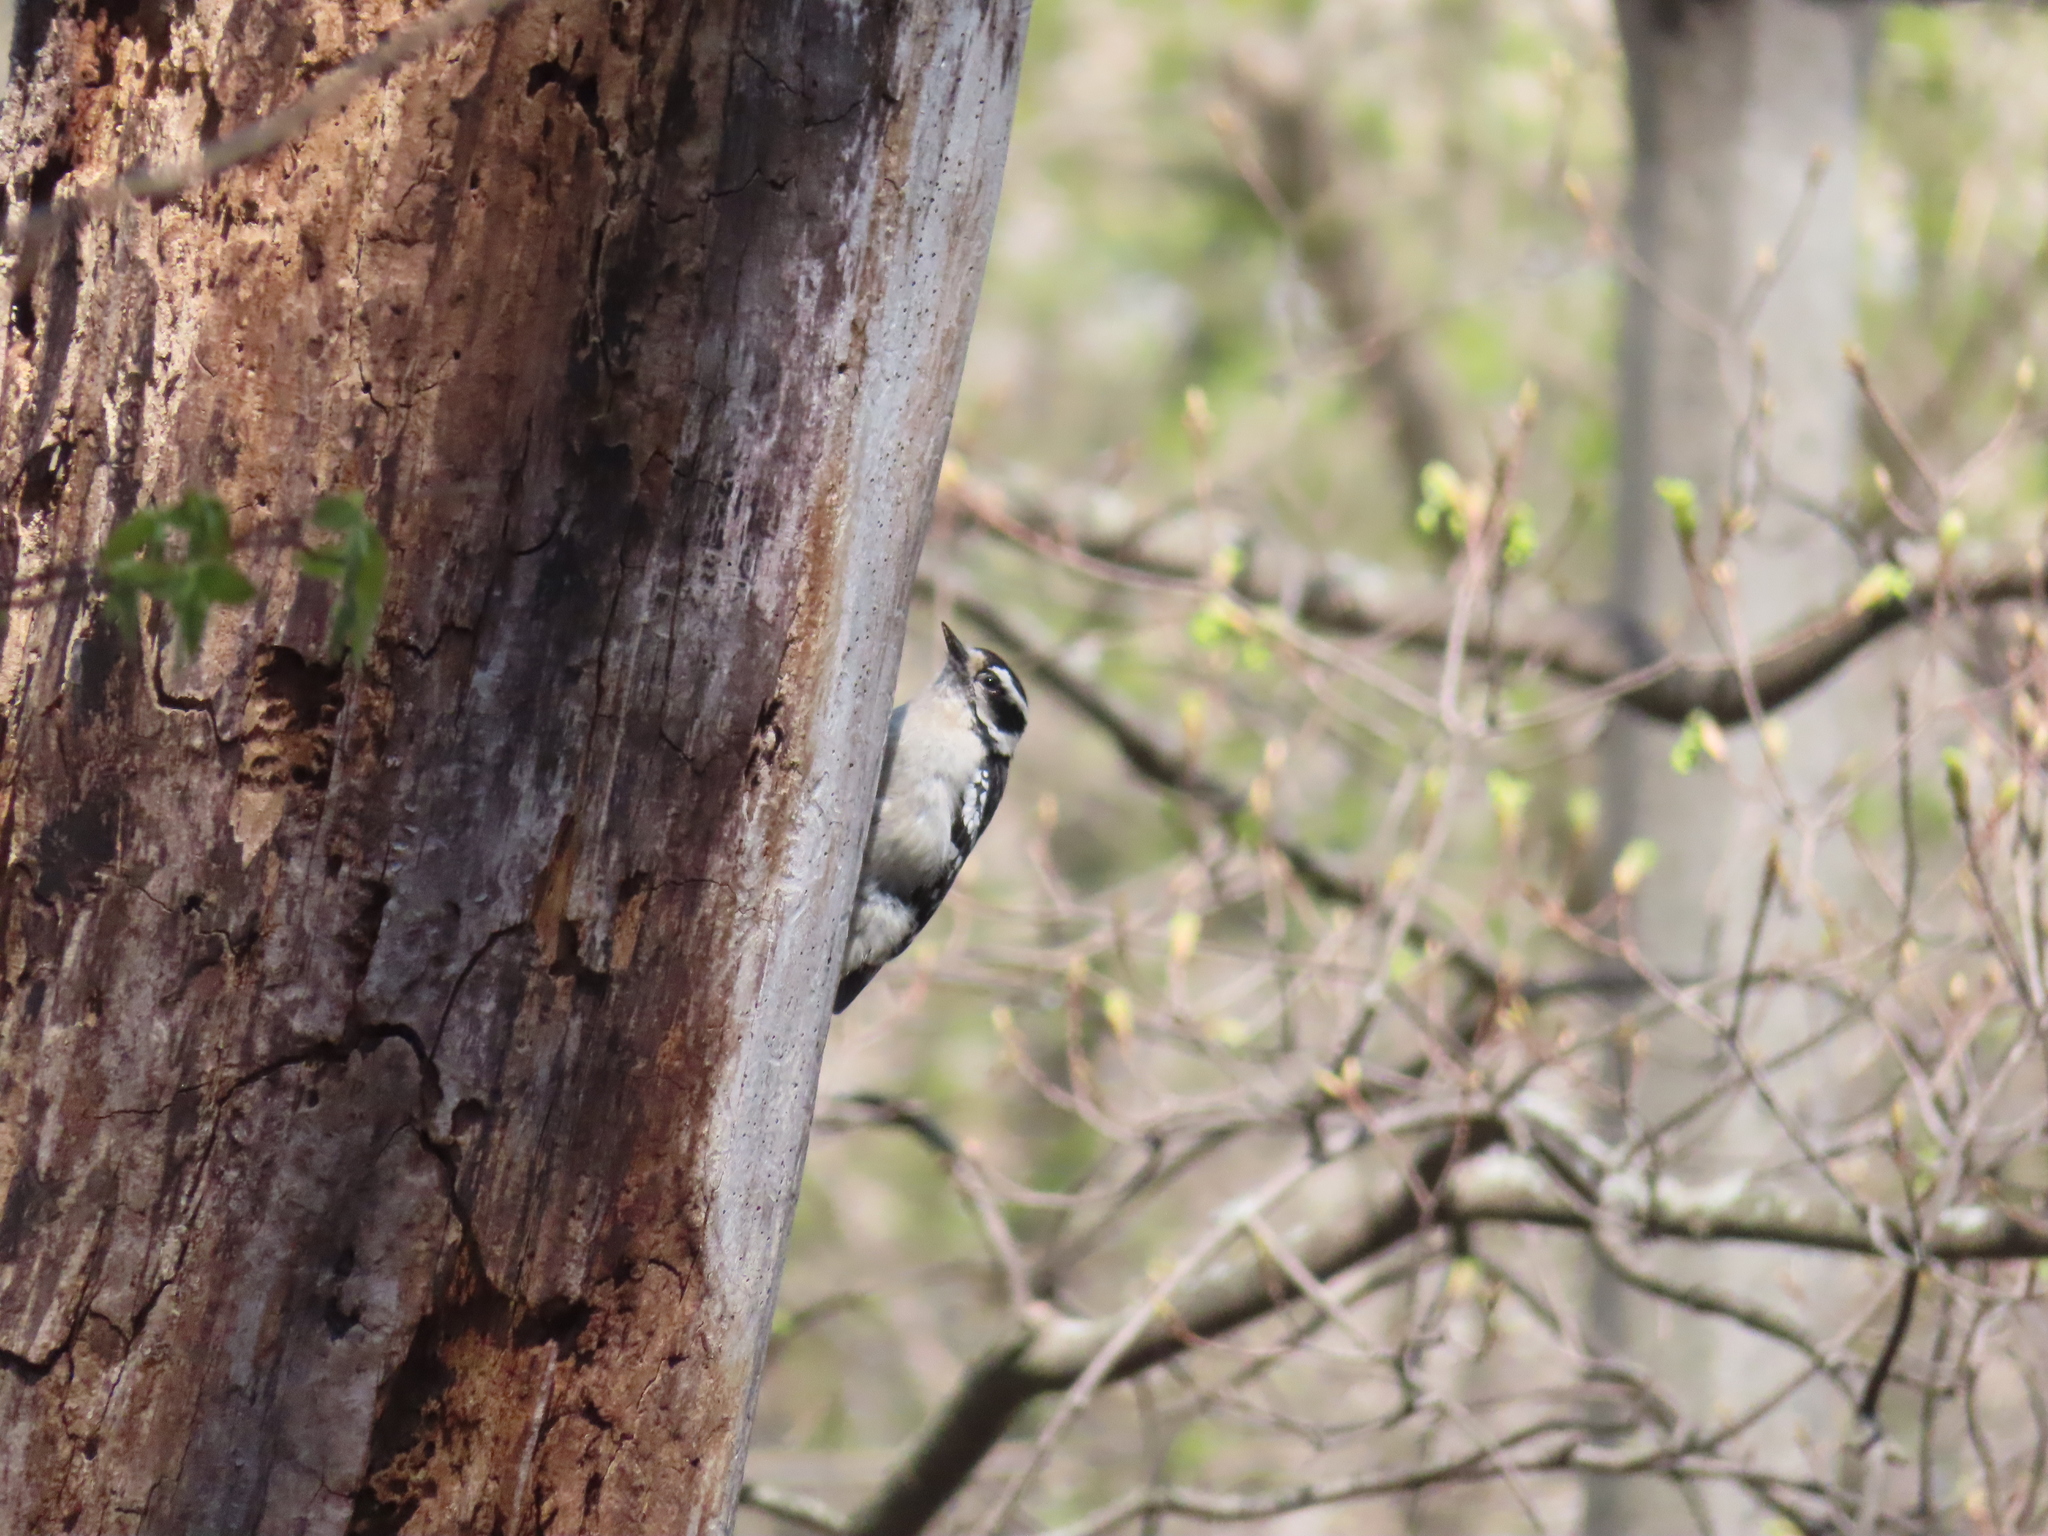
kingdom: Animalia
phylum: Chordata
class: Aves
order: Piciformes
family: Picidae
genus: Dryobates
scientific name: Dryobates pubescens
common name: Downy woodpecker
